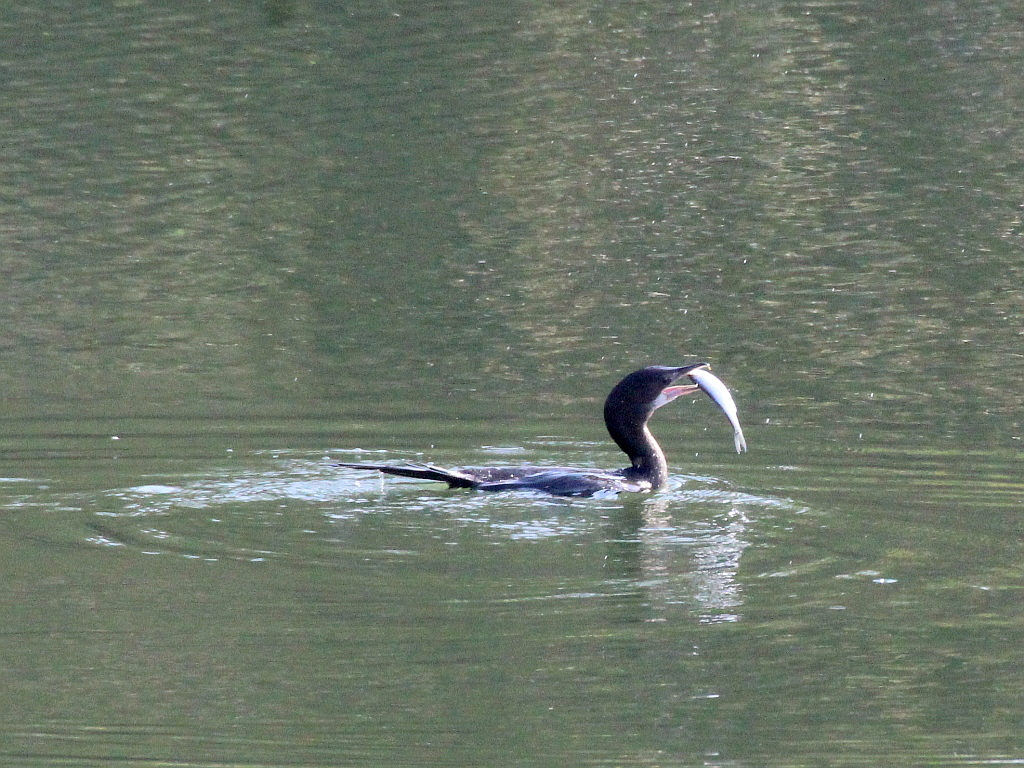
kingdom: Animalia
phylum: Chordata
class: Aves
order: Suliformes
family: Phalacrocoracidae
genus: Microcarbo
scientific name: Microcarbo pygmaeus
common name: Pygmy cormorant
